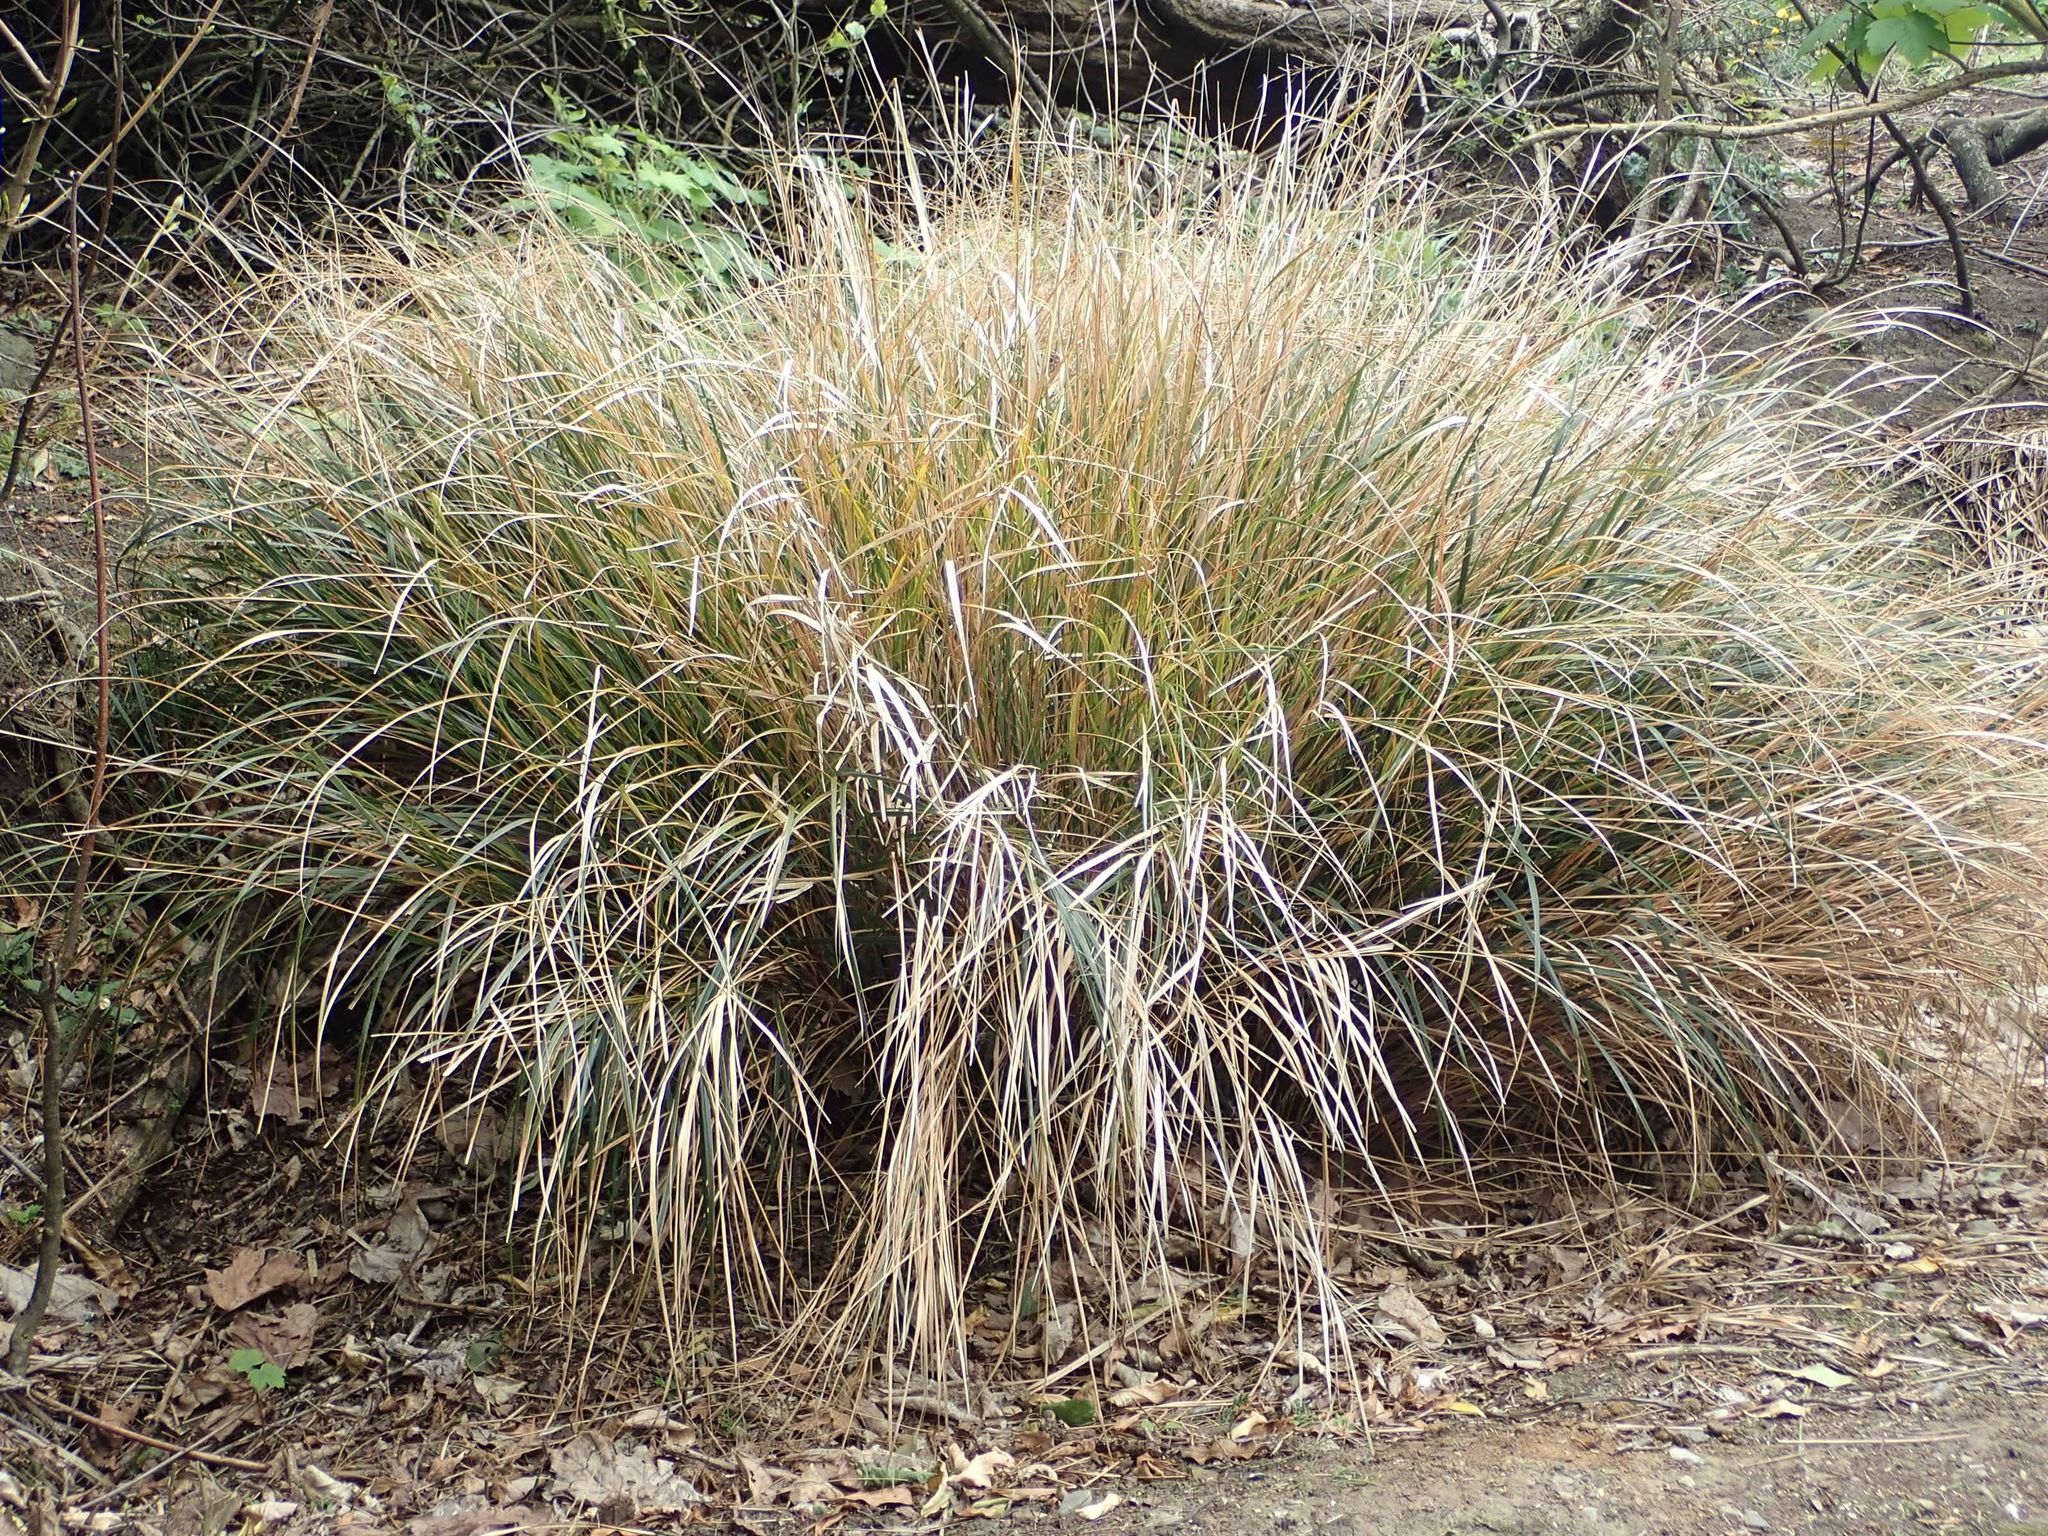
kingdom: Plantae
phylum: Tracheophyta
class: Liliopsida
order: Poales
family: Poaceae
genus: Anemanthele
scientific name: Anemanthele lessoniana
